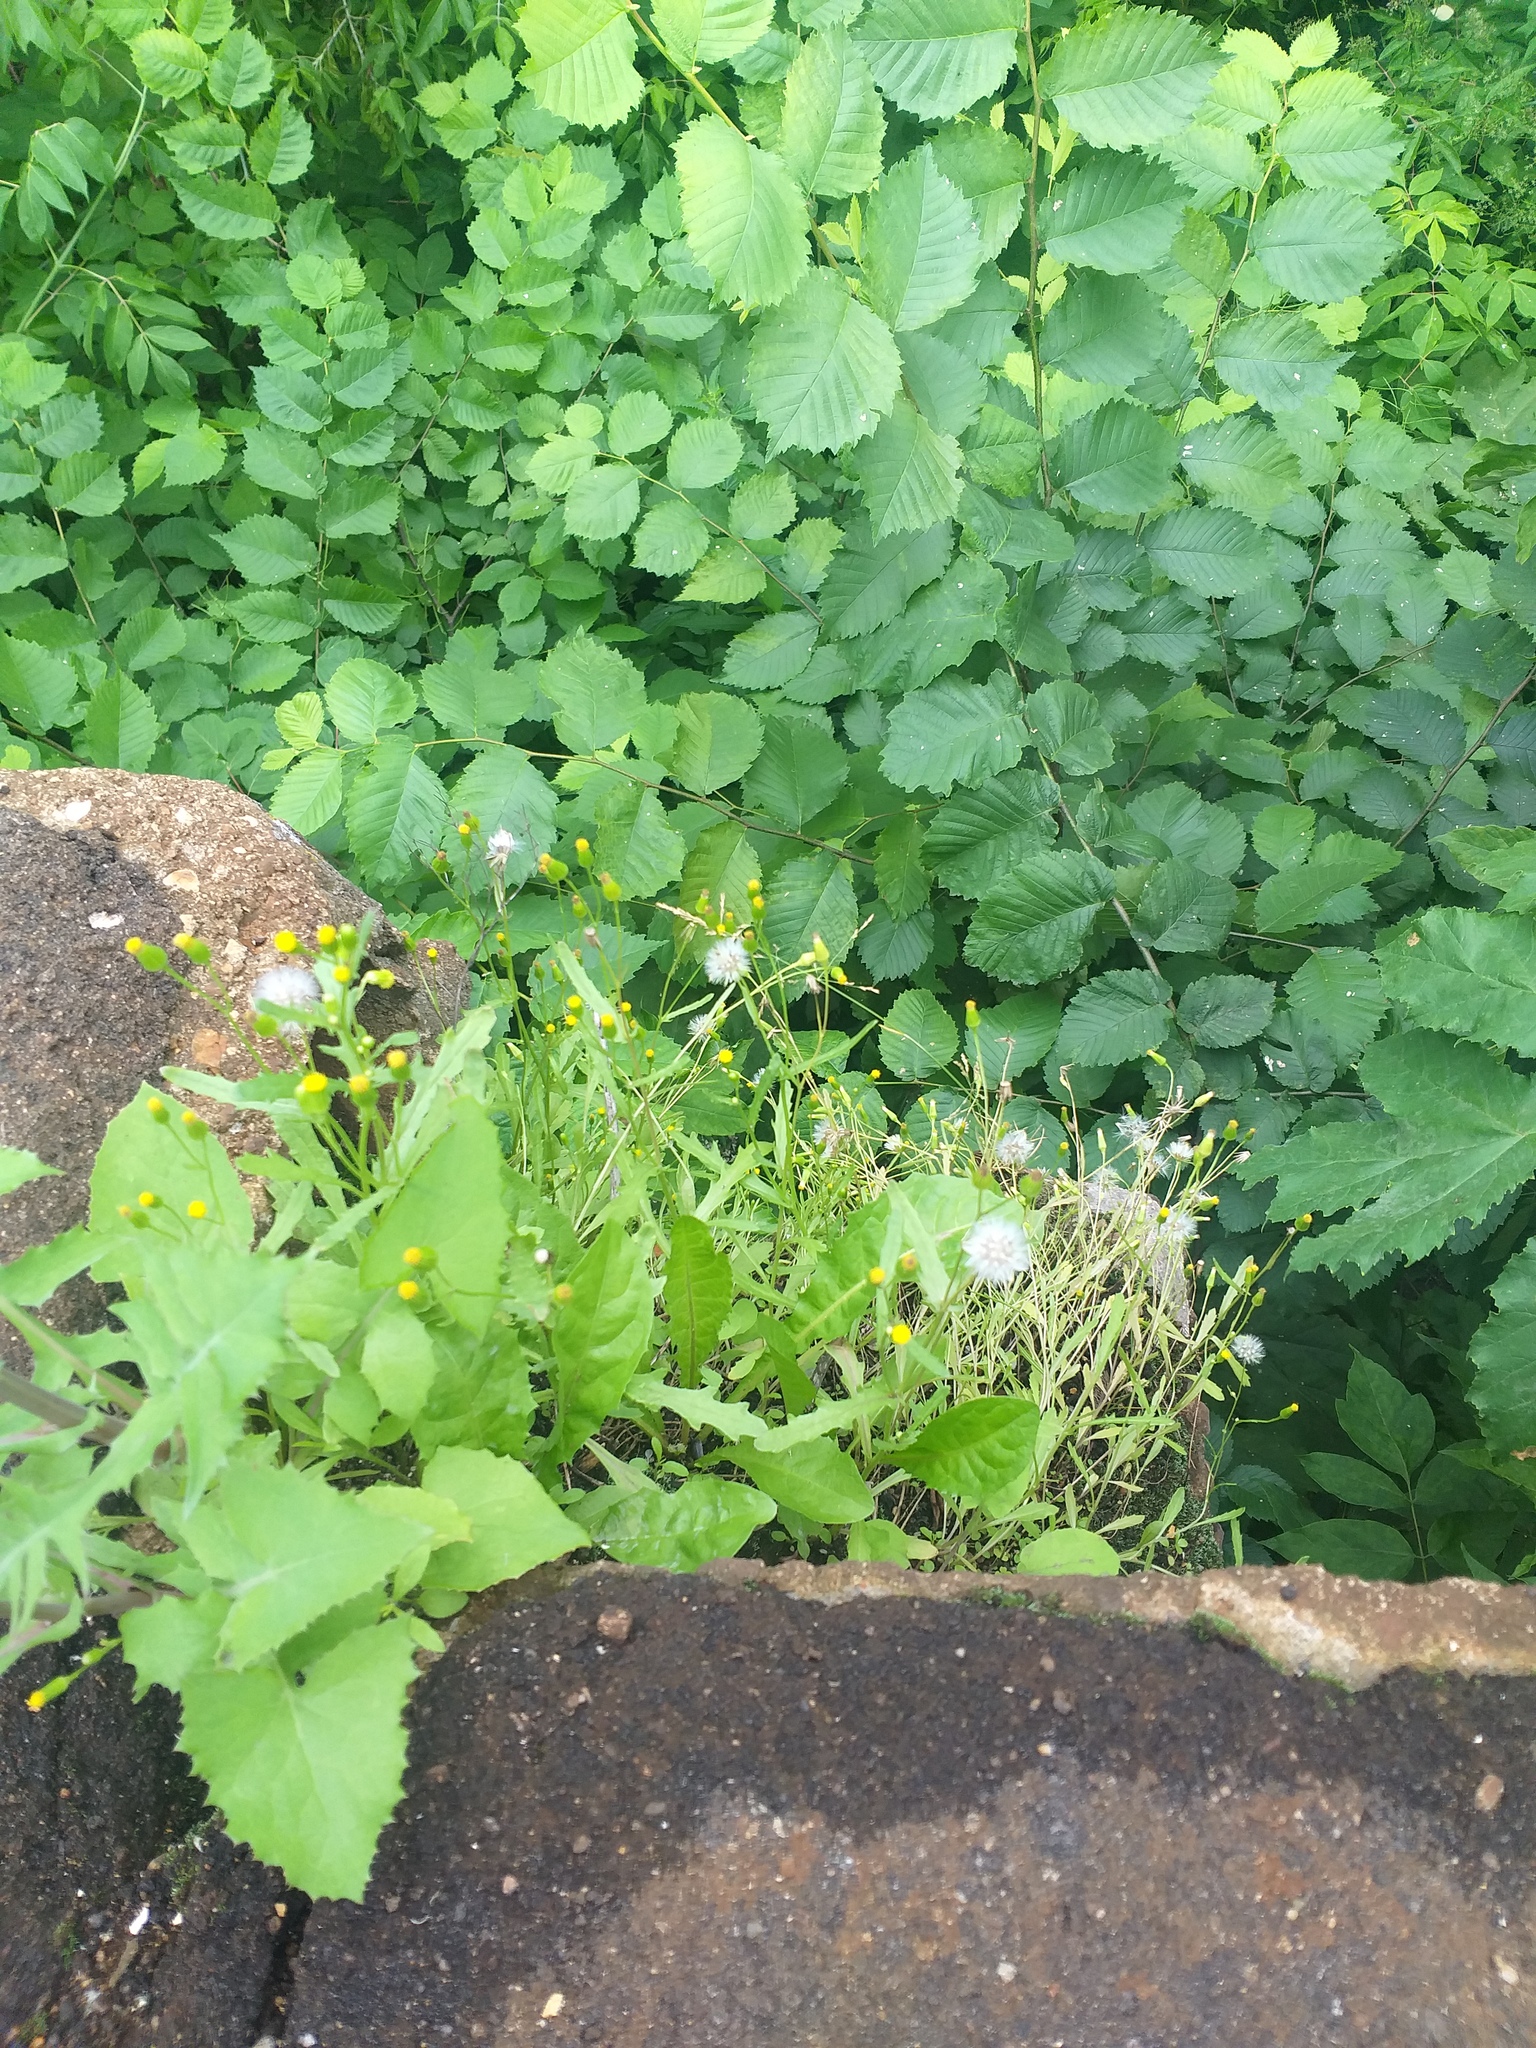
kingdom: Plantae
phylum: Tracheophyta
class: Magnoliopsida
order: Asterales
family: Asteraceae
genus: Senecio
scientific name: Senecio dubitabilis
